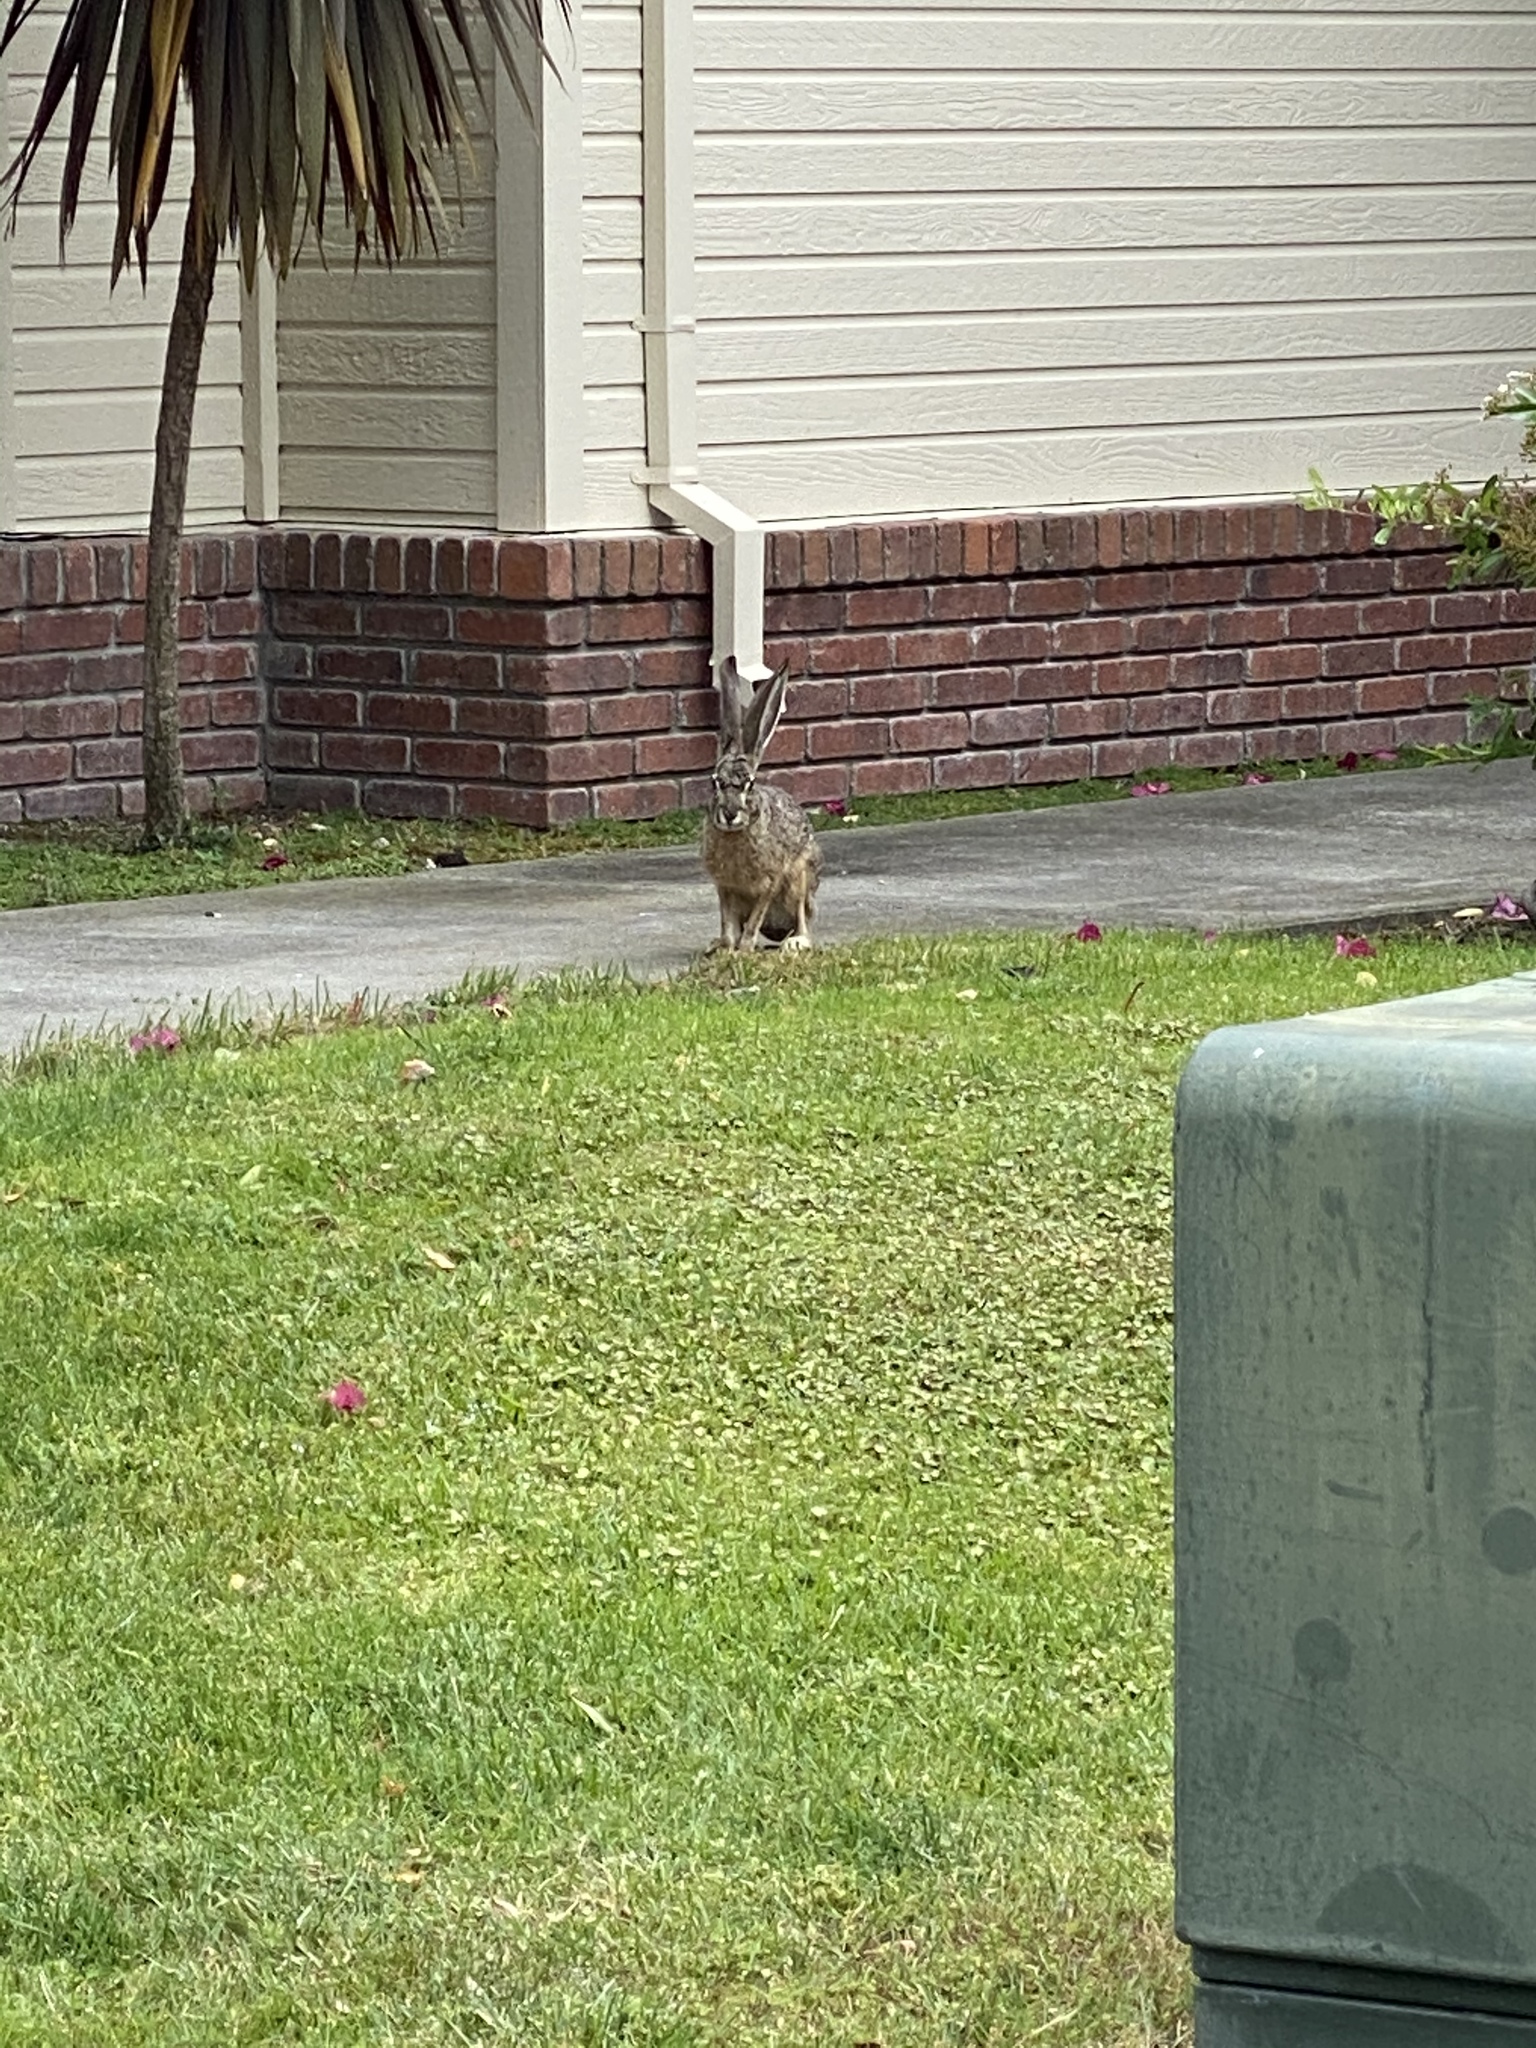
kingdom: Animalia
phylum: Chordata
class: Mammalia
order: Lagomorpha
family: Leporidae
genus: Lepus
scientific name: Lepus californicus
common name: Black-tailed jackrabbit
